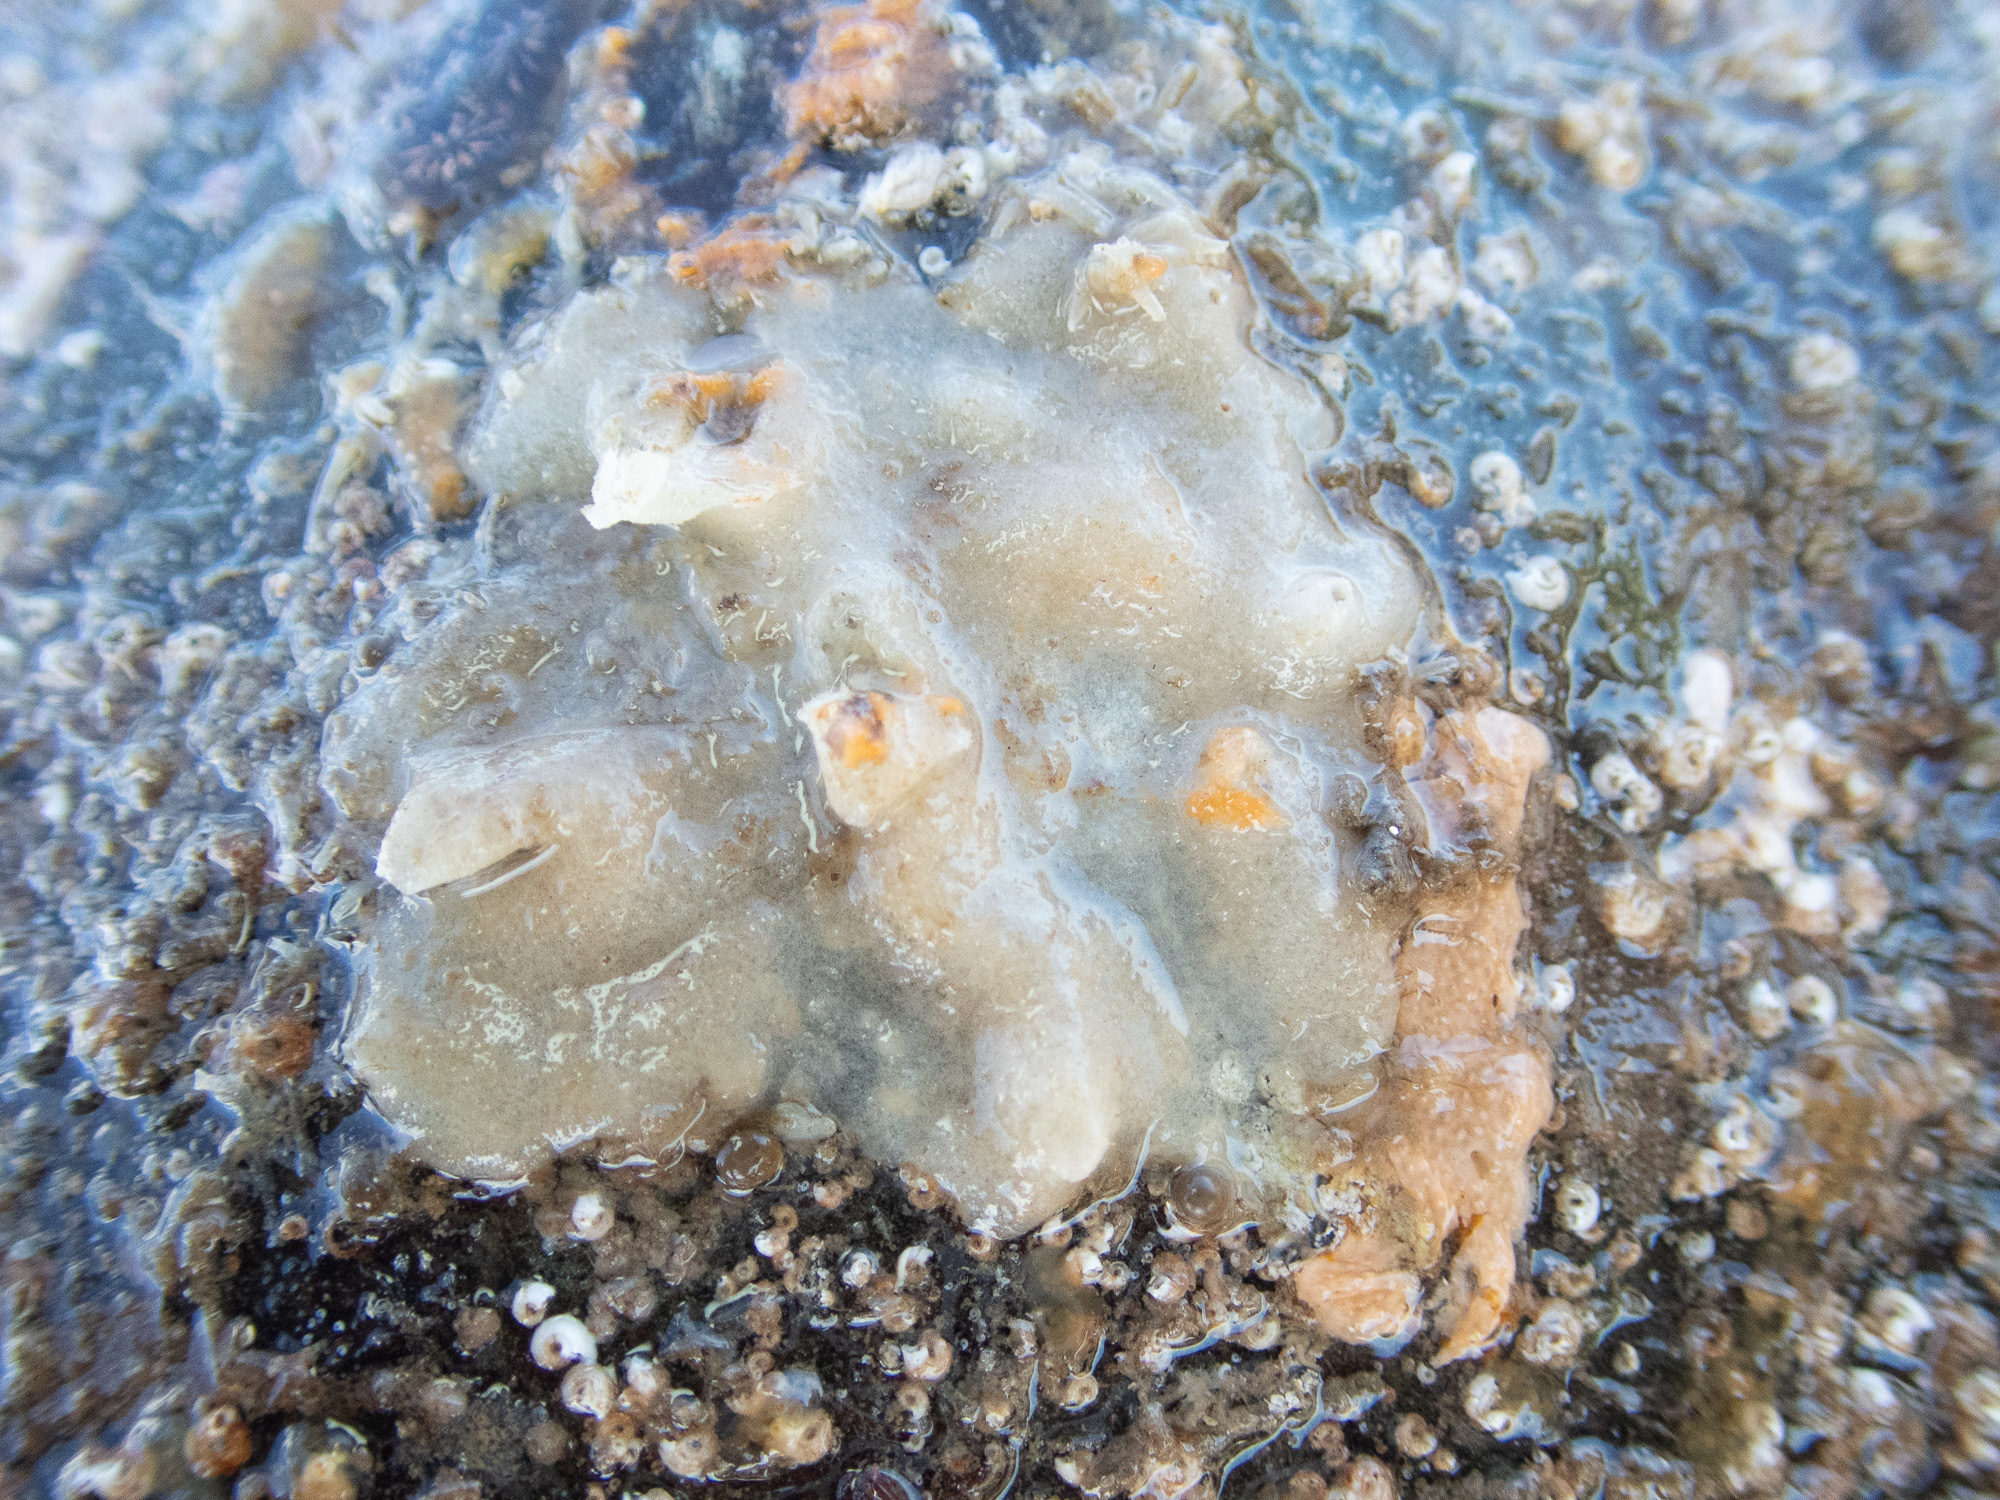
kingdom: Animalia
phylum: Porifera
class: Calcarea
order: Baerida
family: Baeriidae
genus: Leuconia
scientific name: Leuconia nivea
